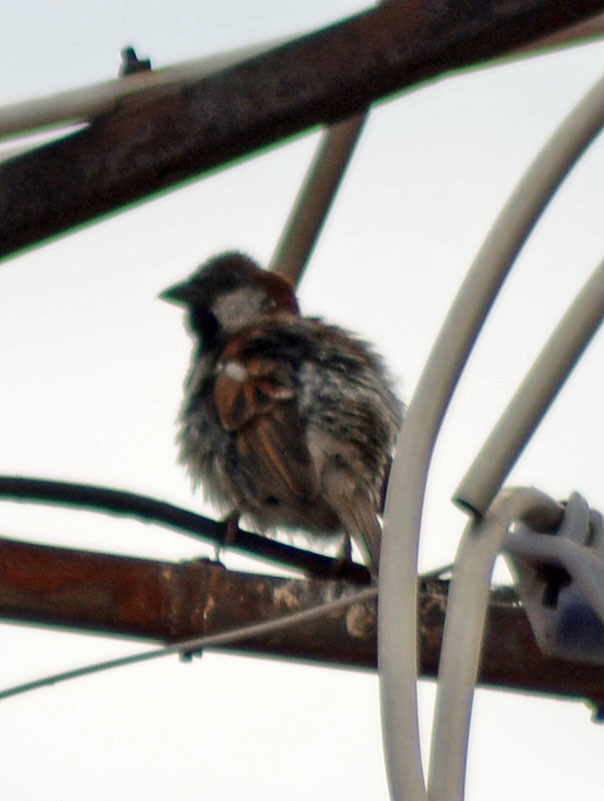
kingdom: Animalia
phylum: Chordata
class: Aves
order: Passeriformes
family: Passeridae
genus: Passer
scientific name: Passer domesticus
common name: House sparrow
